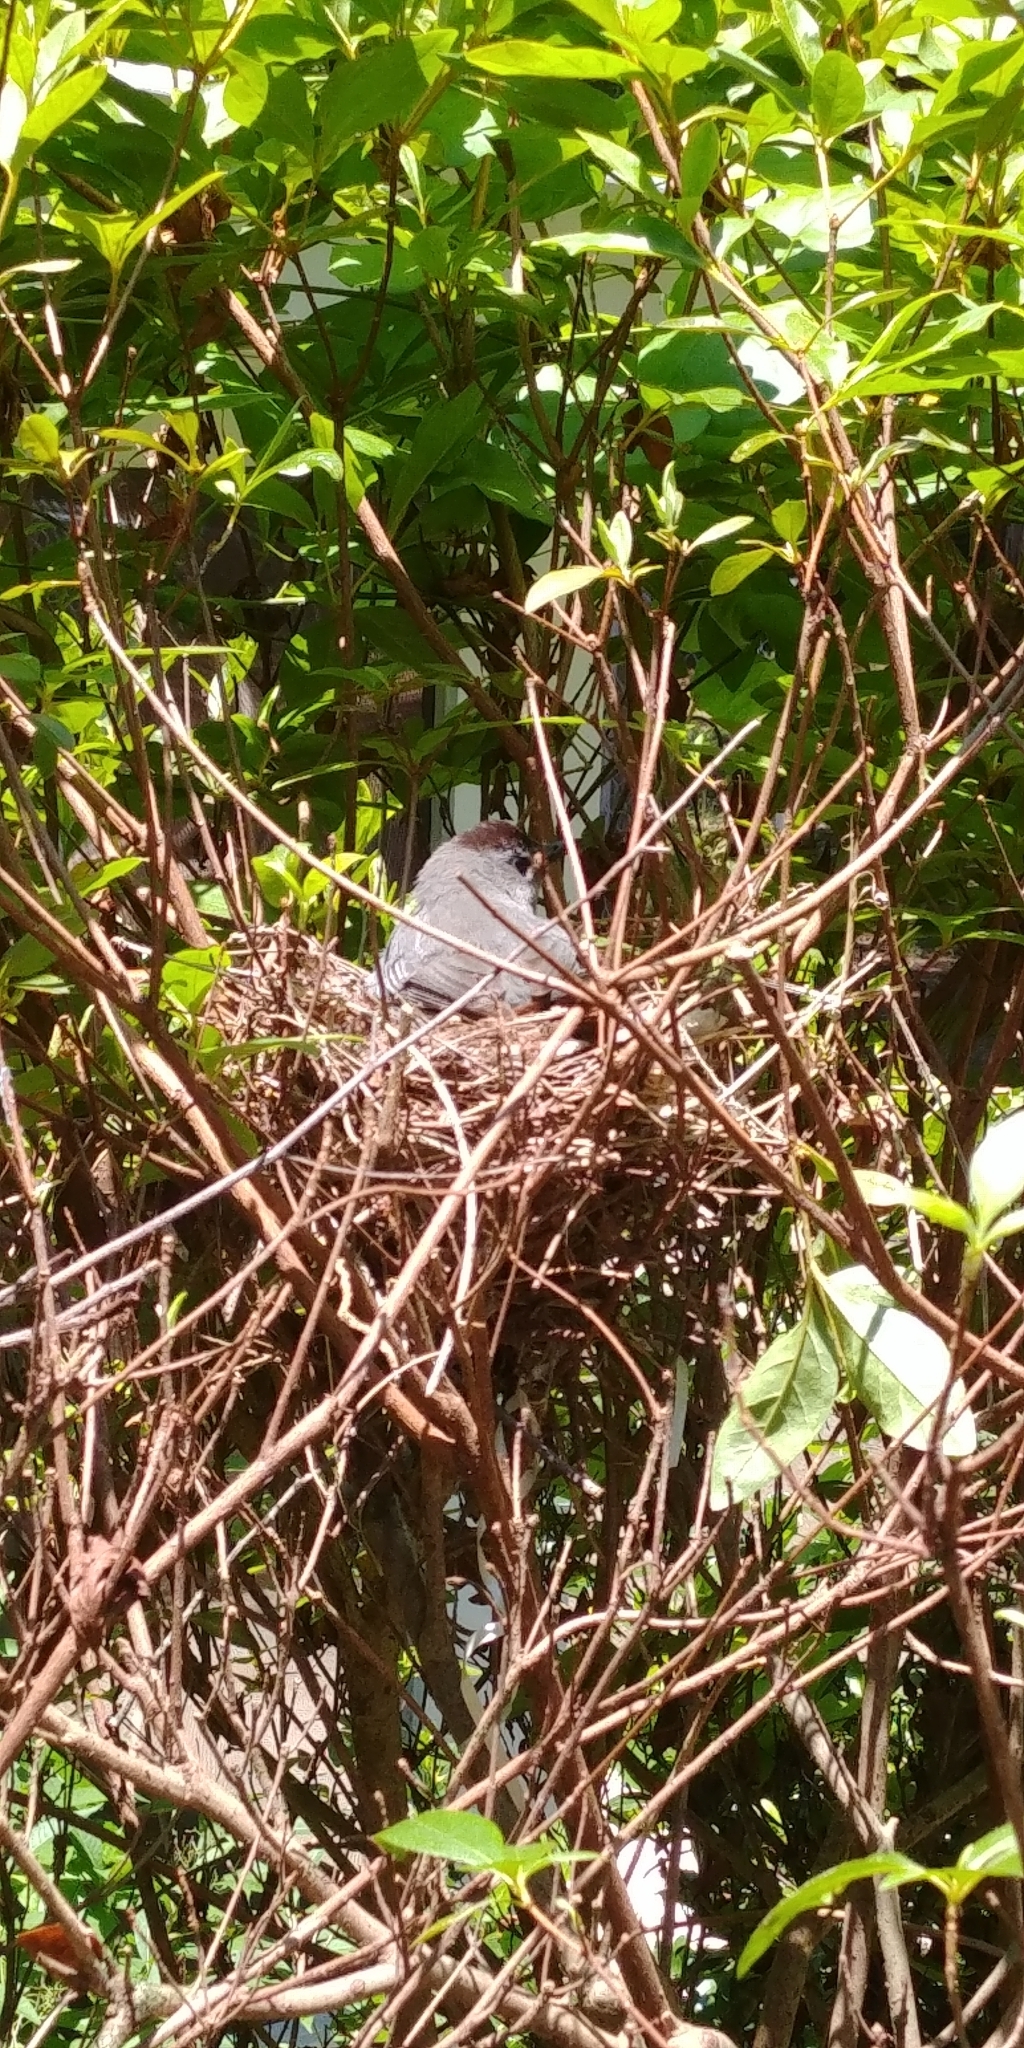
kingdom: Animalia
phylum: Chordata
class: Aves
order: Passeriformes
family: Mimidae
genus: Dumetella
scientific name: Dumetella carolinensis
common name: Gray catbird
